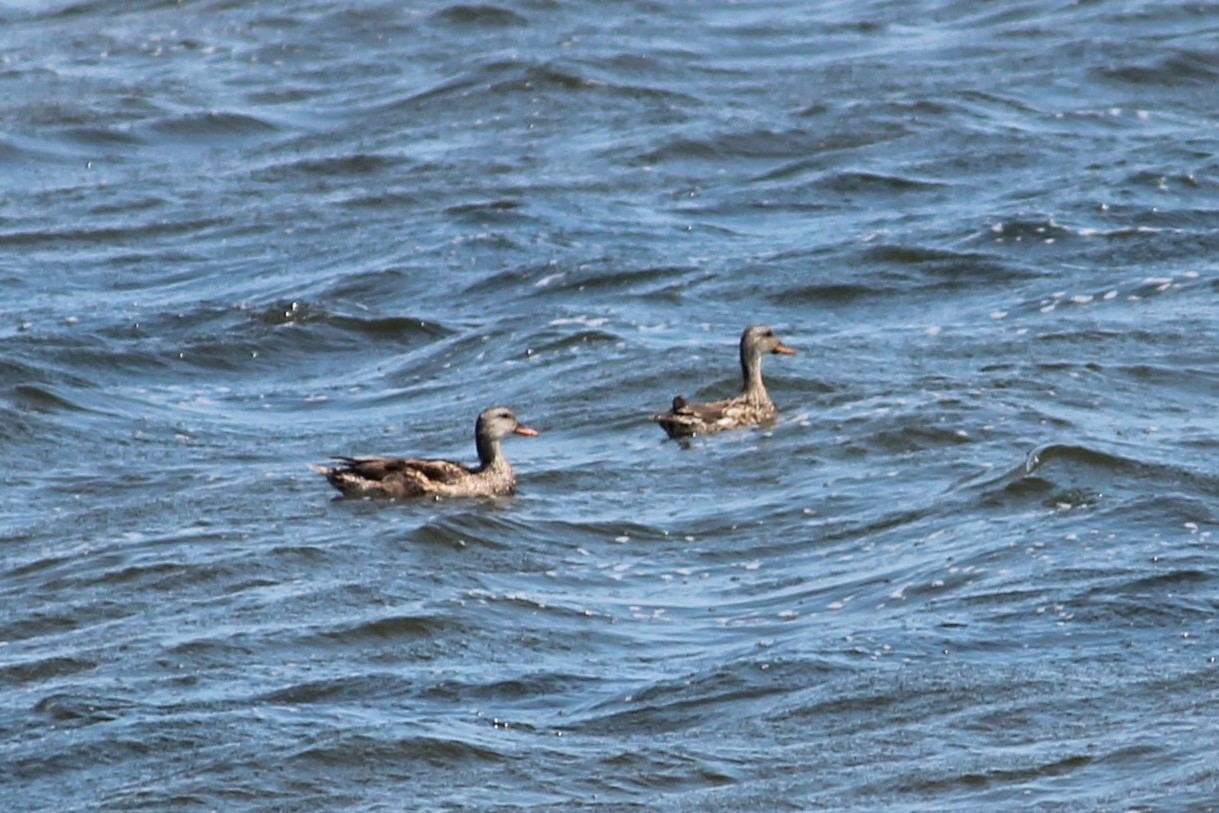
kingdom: Animalia
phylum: Chordata
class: Aves
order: Anseriformes
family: Anatidae
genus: Mareca
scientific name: Mareca strepera
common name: Gadwall
